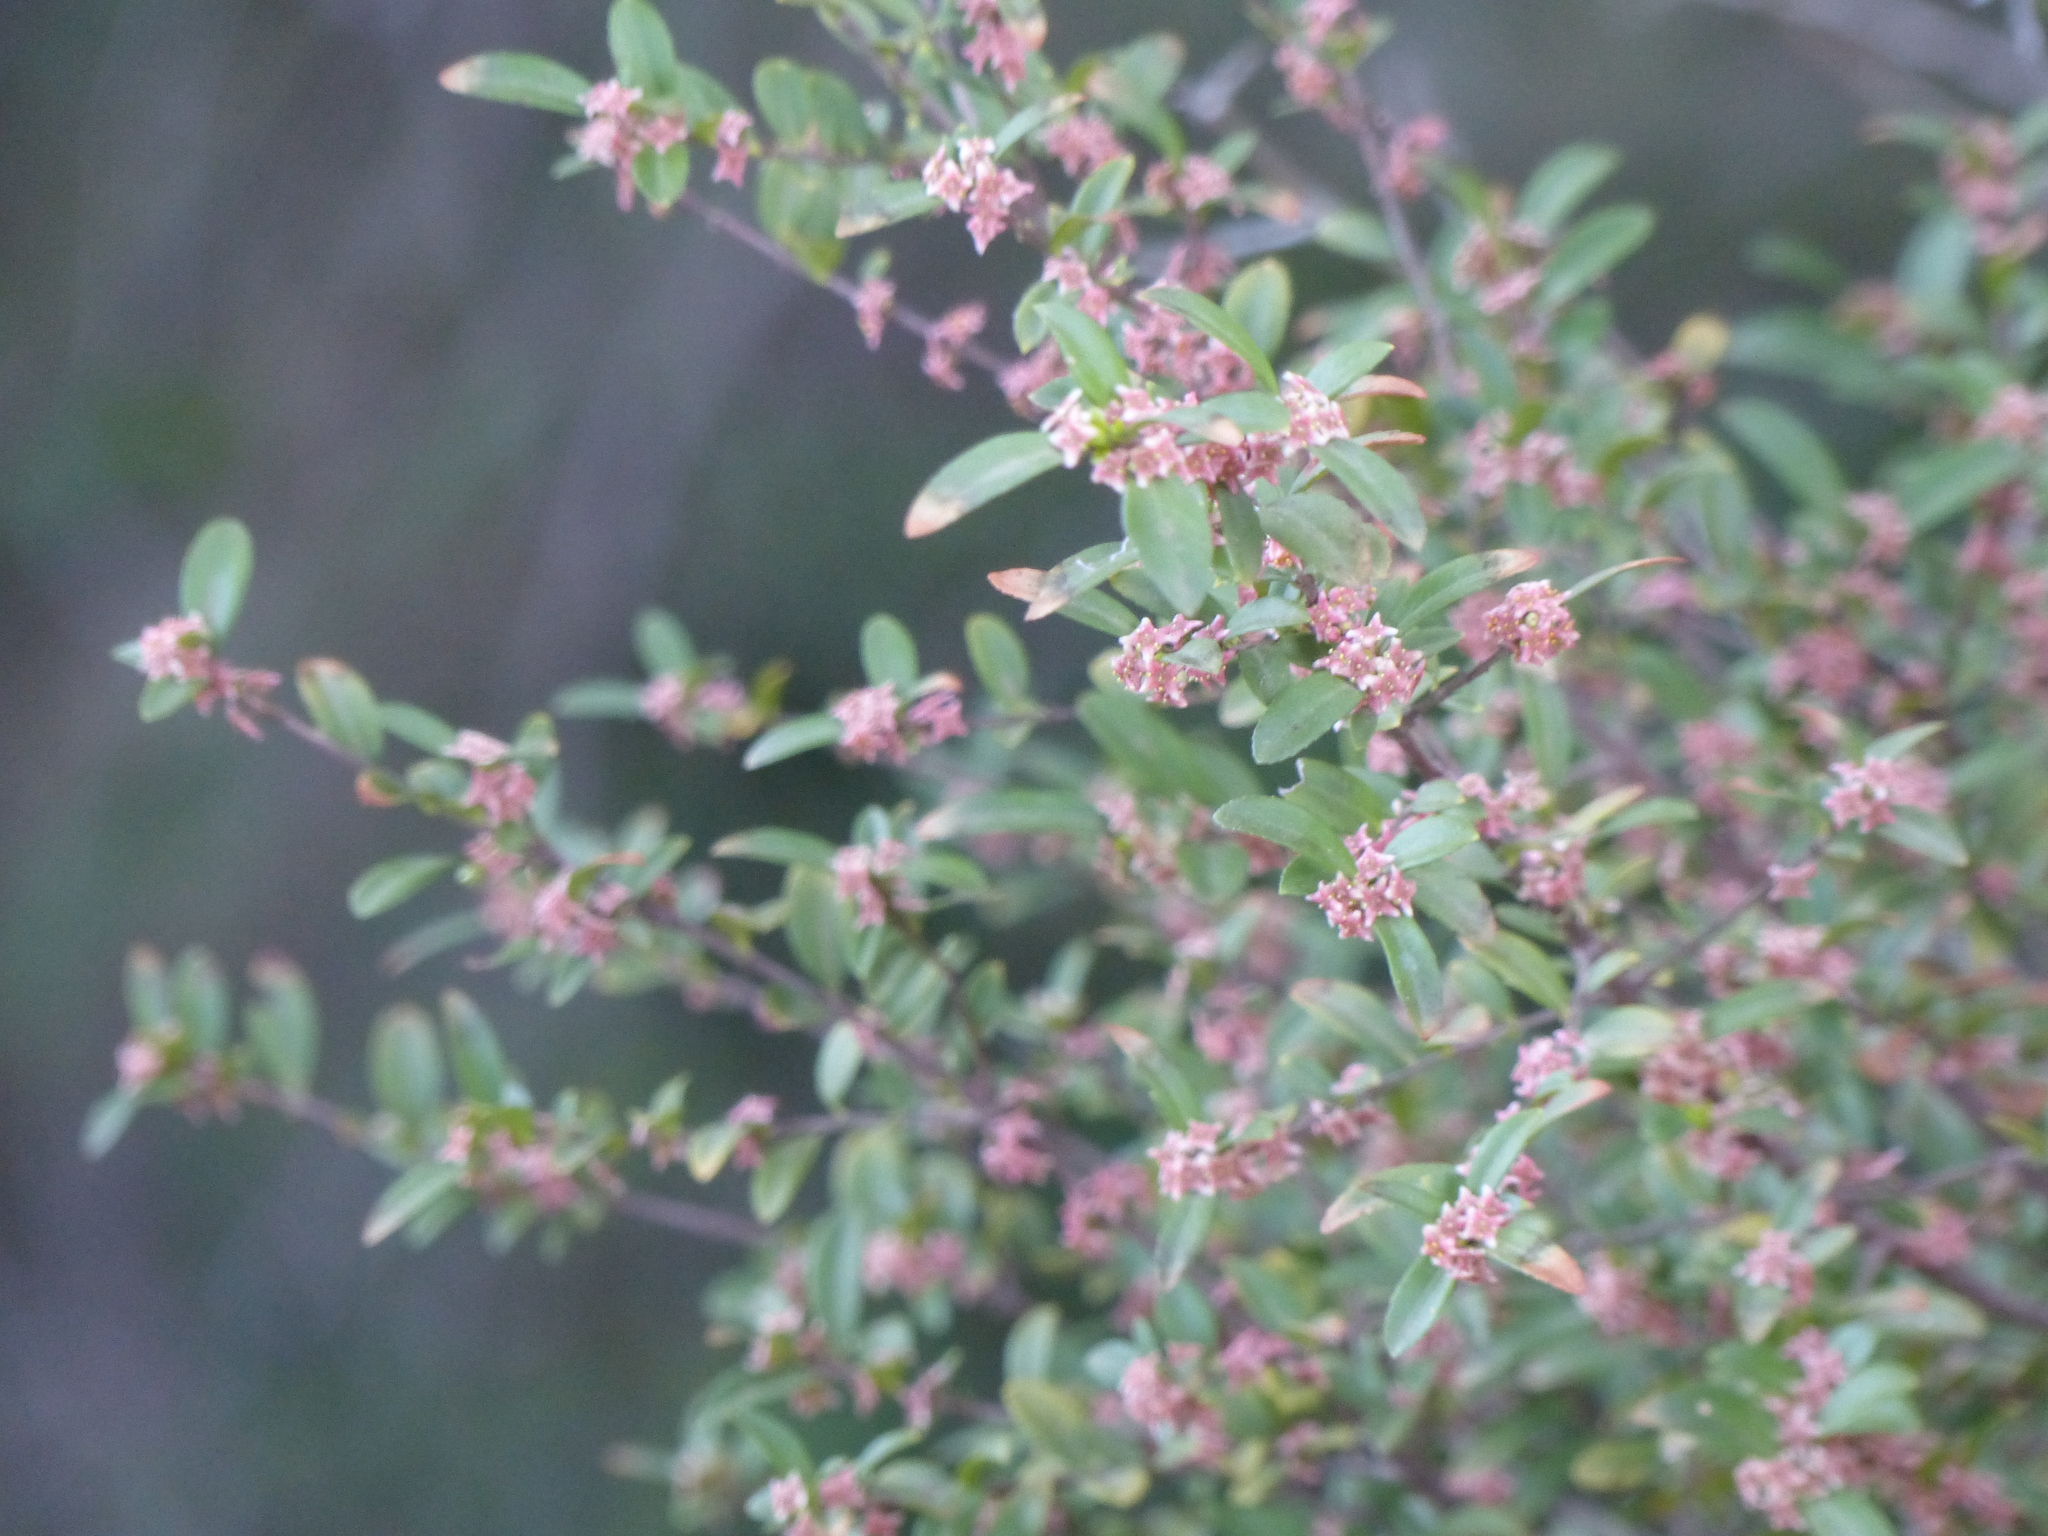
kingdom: Plantae
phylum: Tracheophyta
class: Magnoliopsida
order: Celastrales
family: Celastraceae
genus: Paxistima
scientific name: Paxistima myrsinites
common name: Mountain-lover
